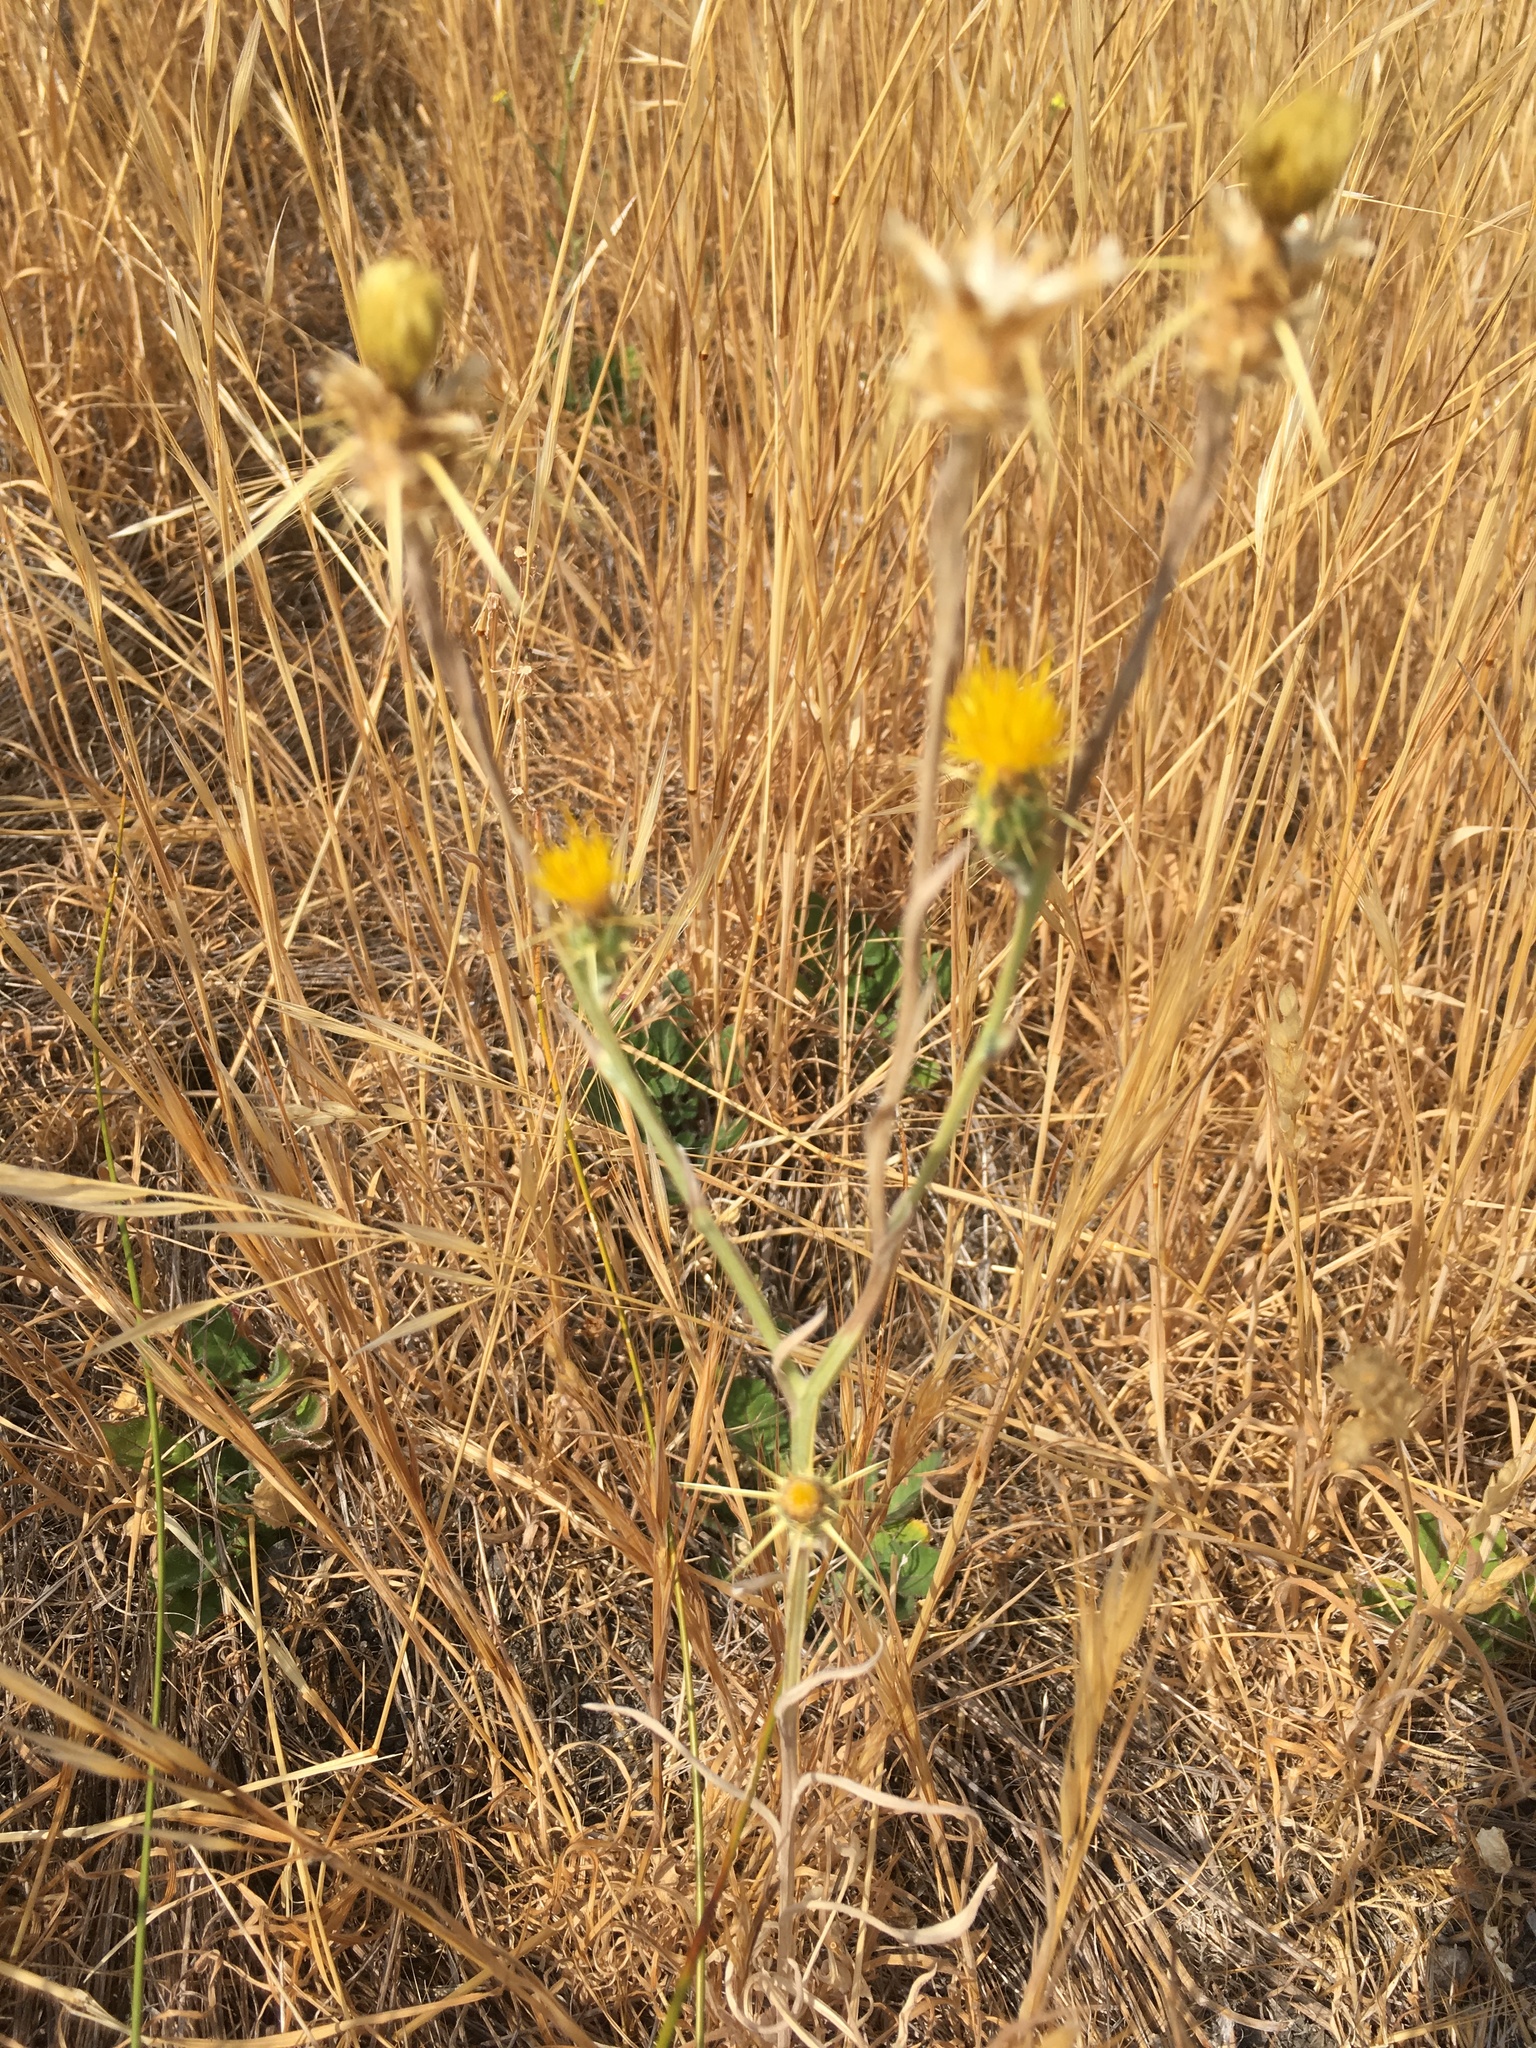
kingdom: Plantae
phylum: Tracheophyta
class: Magnoliopsida
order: Asterales
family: Asteraceae
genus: Centaurea
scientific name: Centaurea solstitialis
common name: Yellow star-thistle
